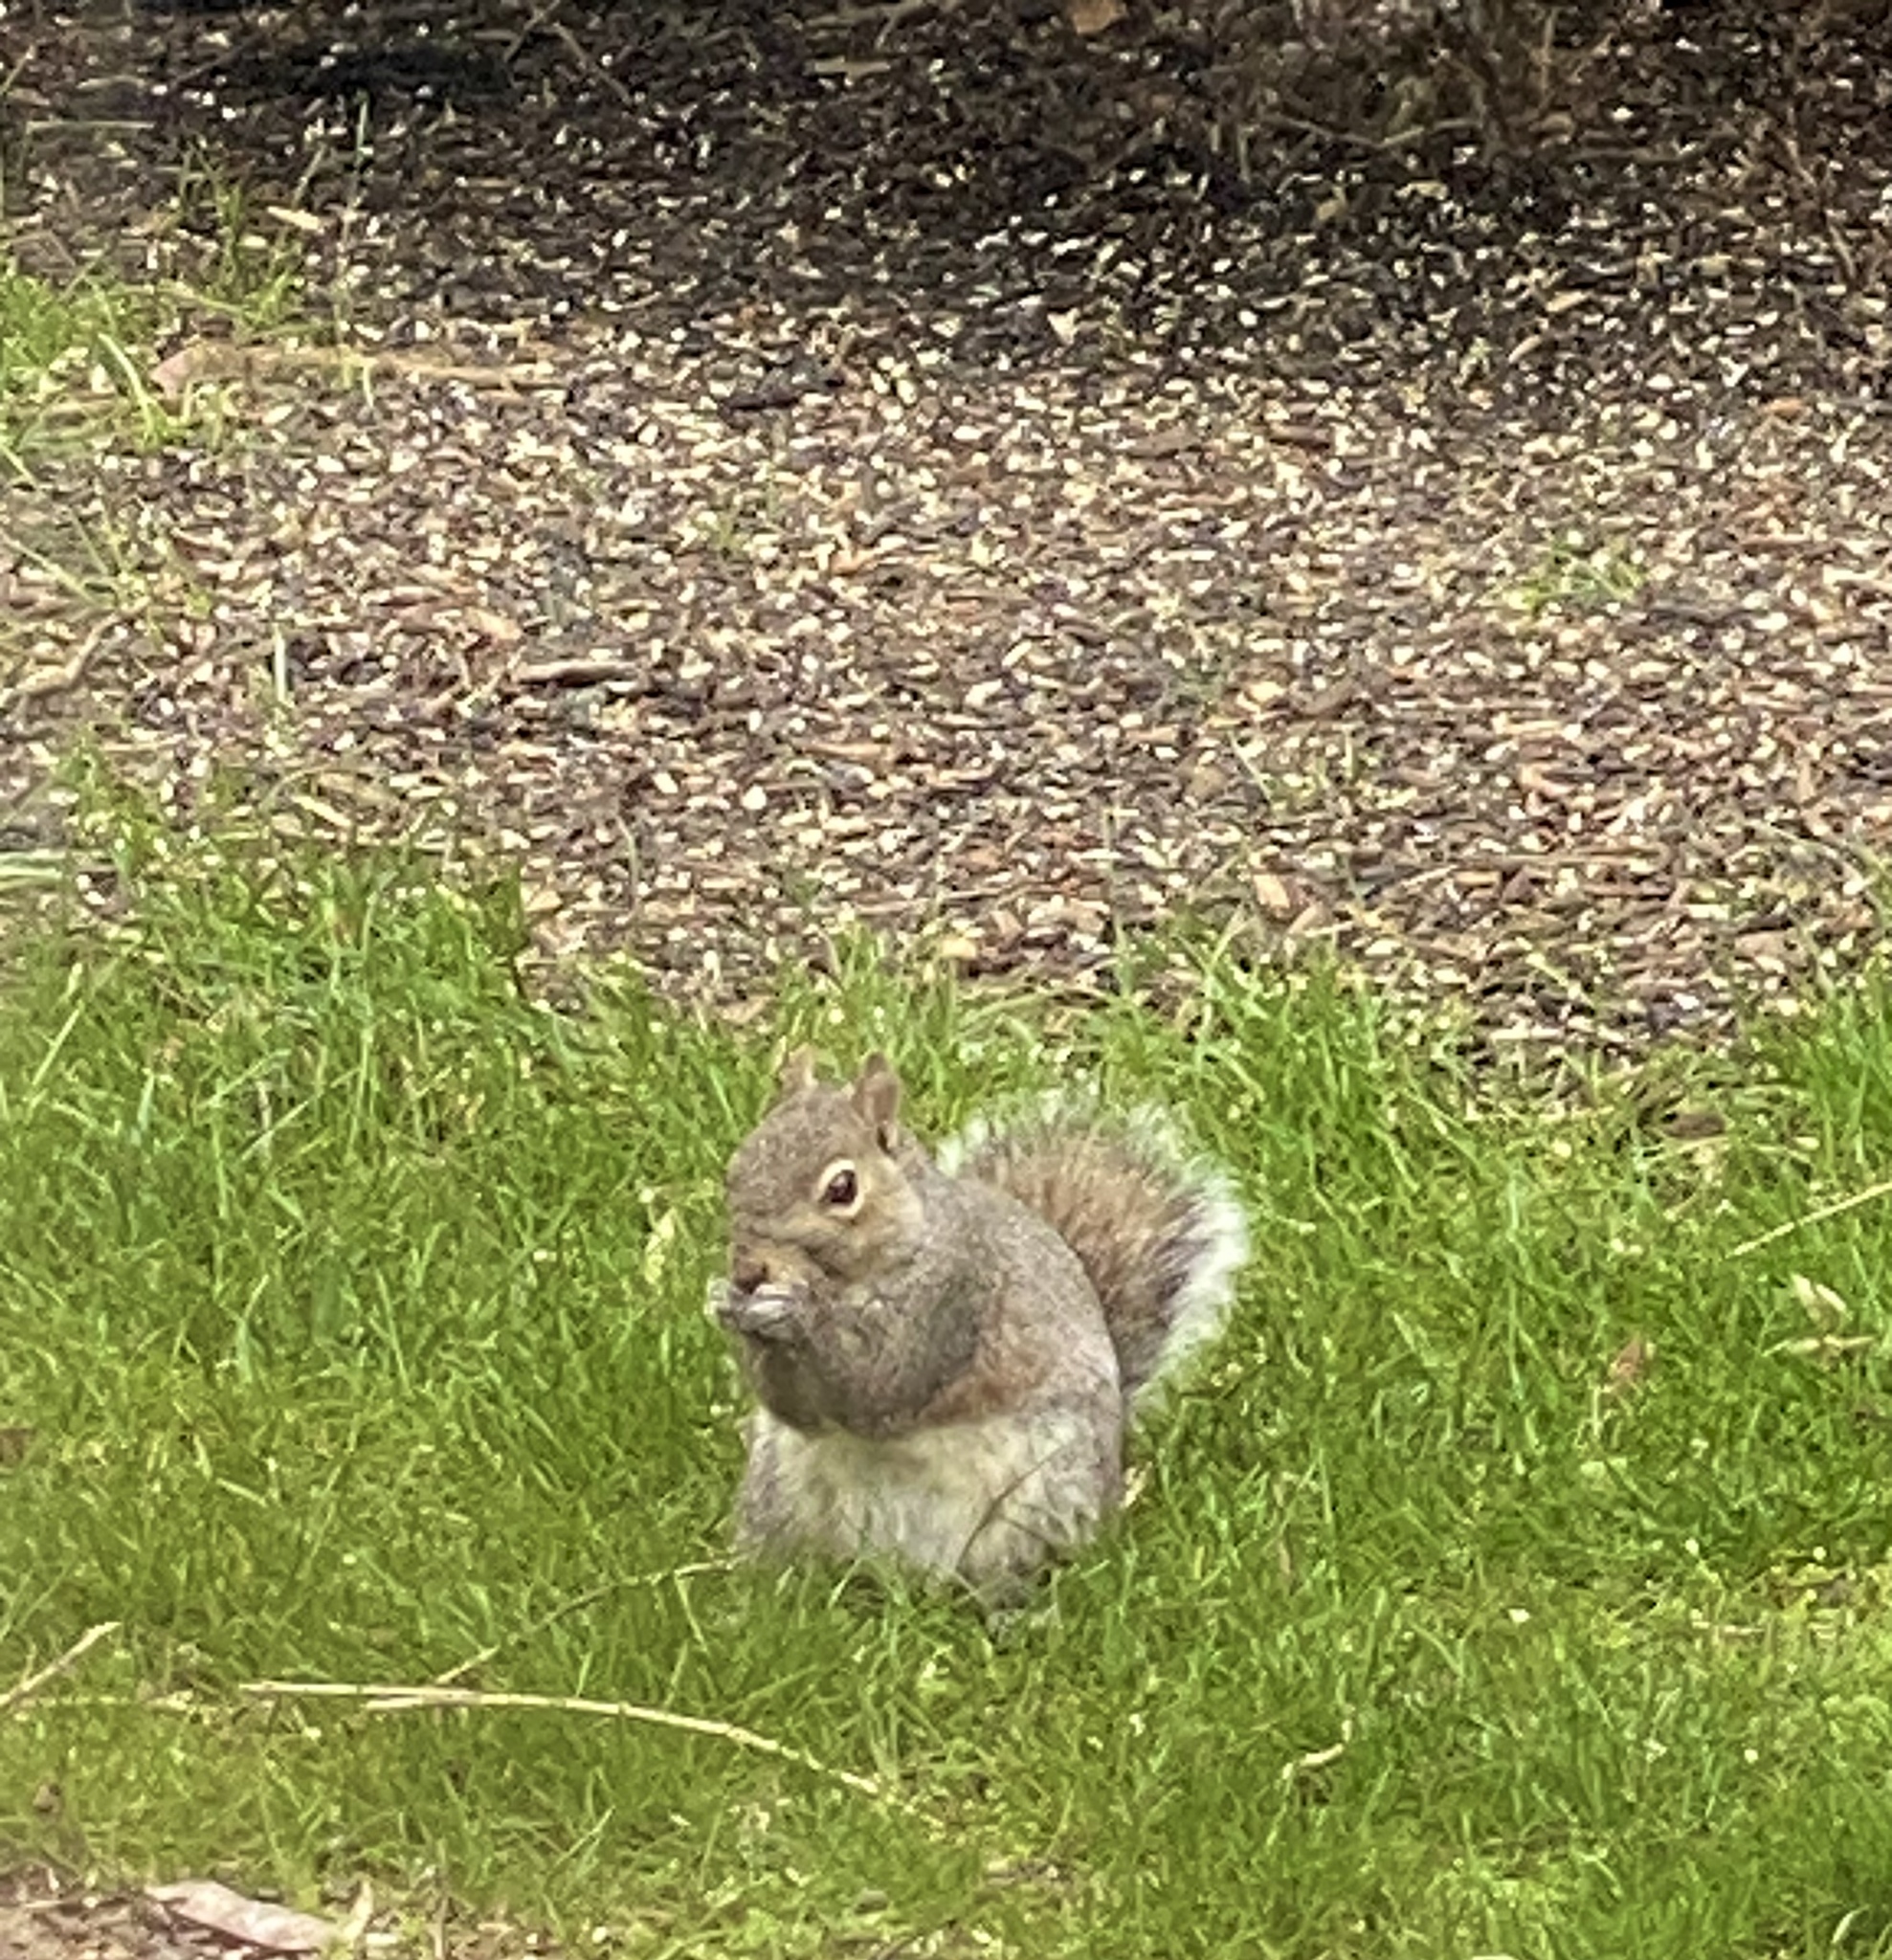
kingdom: Animalia
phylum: Chordata
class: Mammalia
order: Rodentia
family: Sciuridae
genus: Sciurus
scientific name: Sciurus carolinensis
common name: Eastern gray squirrel
